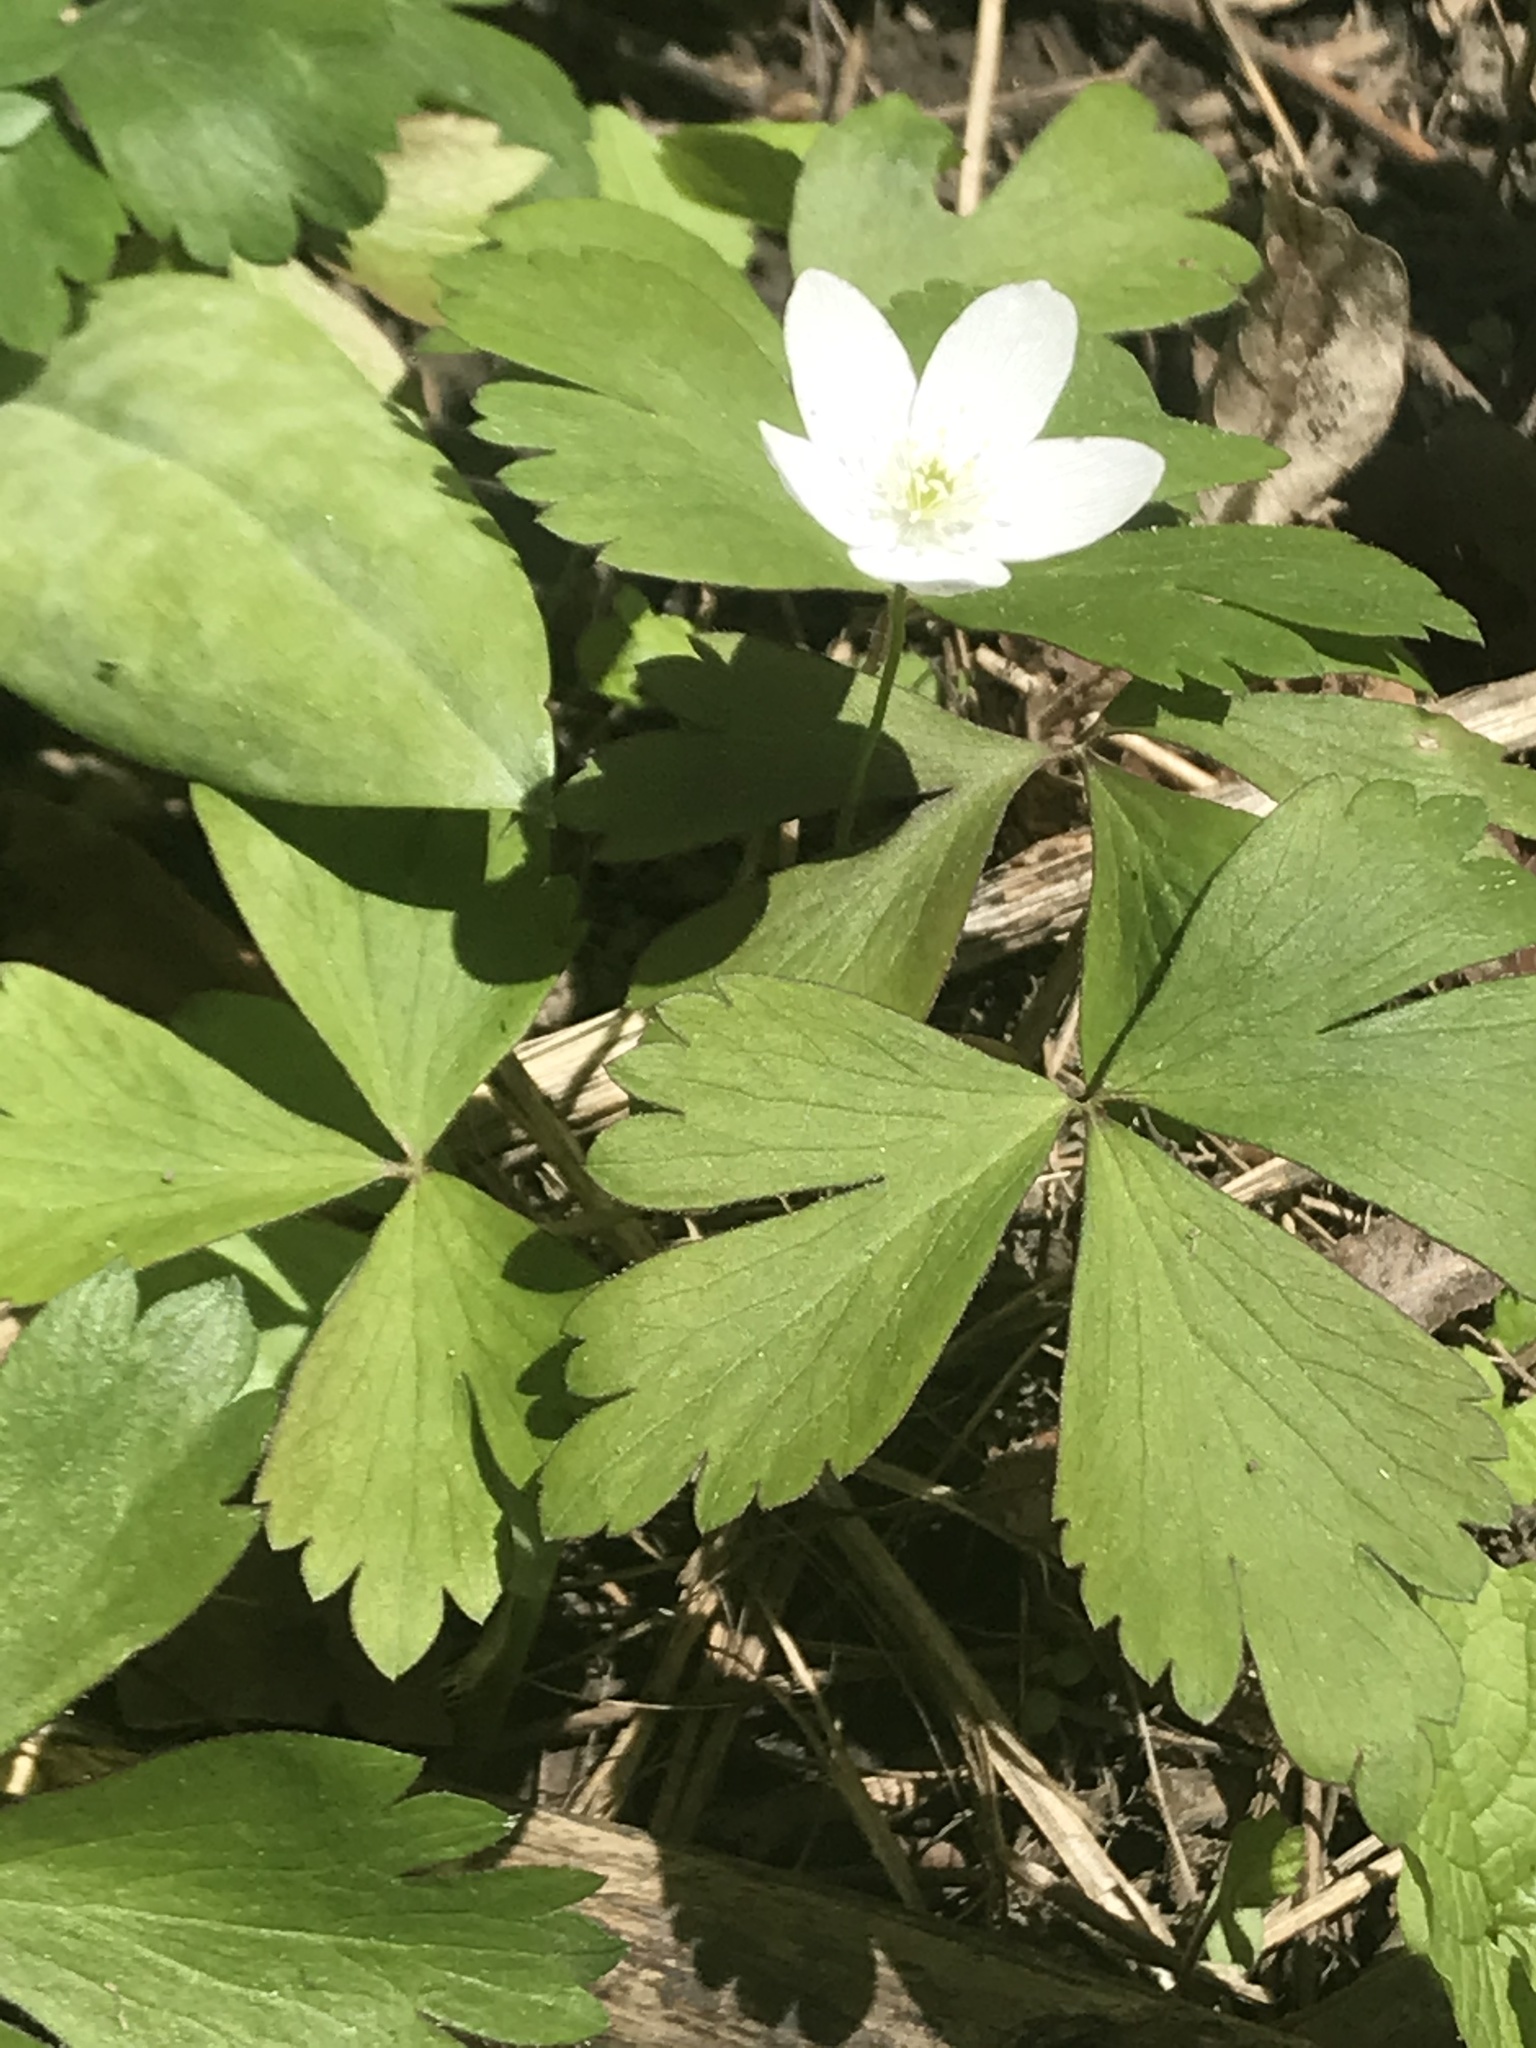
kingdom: Plantae
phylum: Tracheophyta
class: Magnoliopsida
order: Ranunculales
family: Ranunculaceae
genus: Anemone
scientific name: Anemone quinquefolia
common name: Wood anemone
